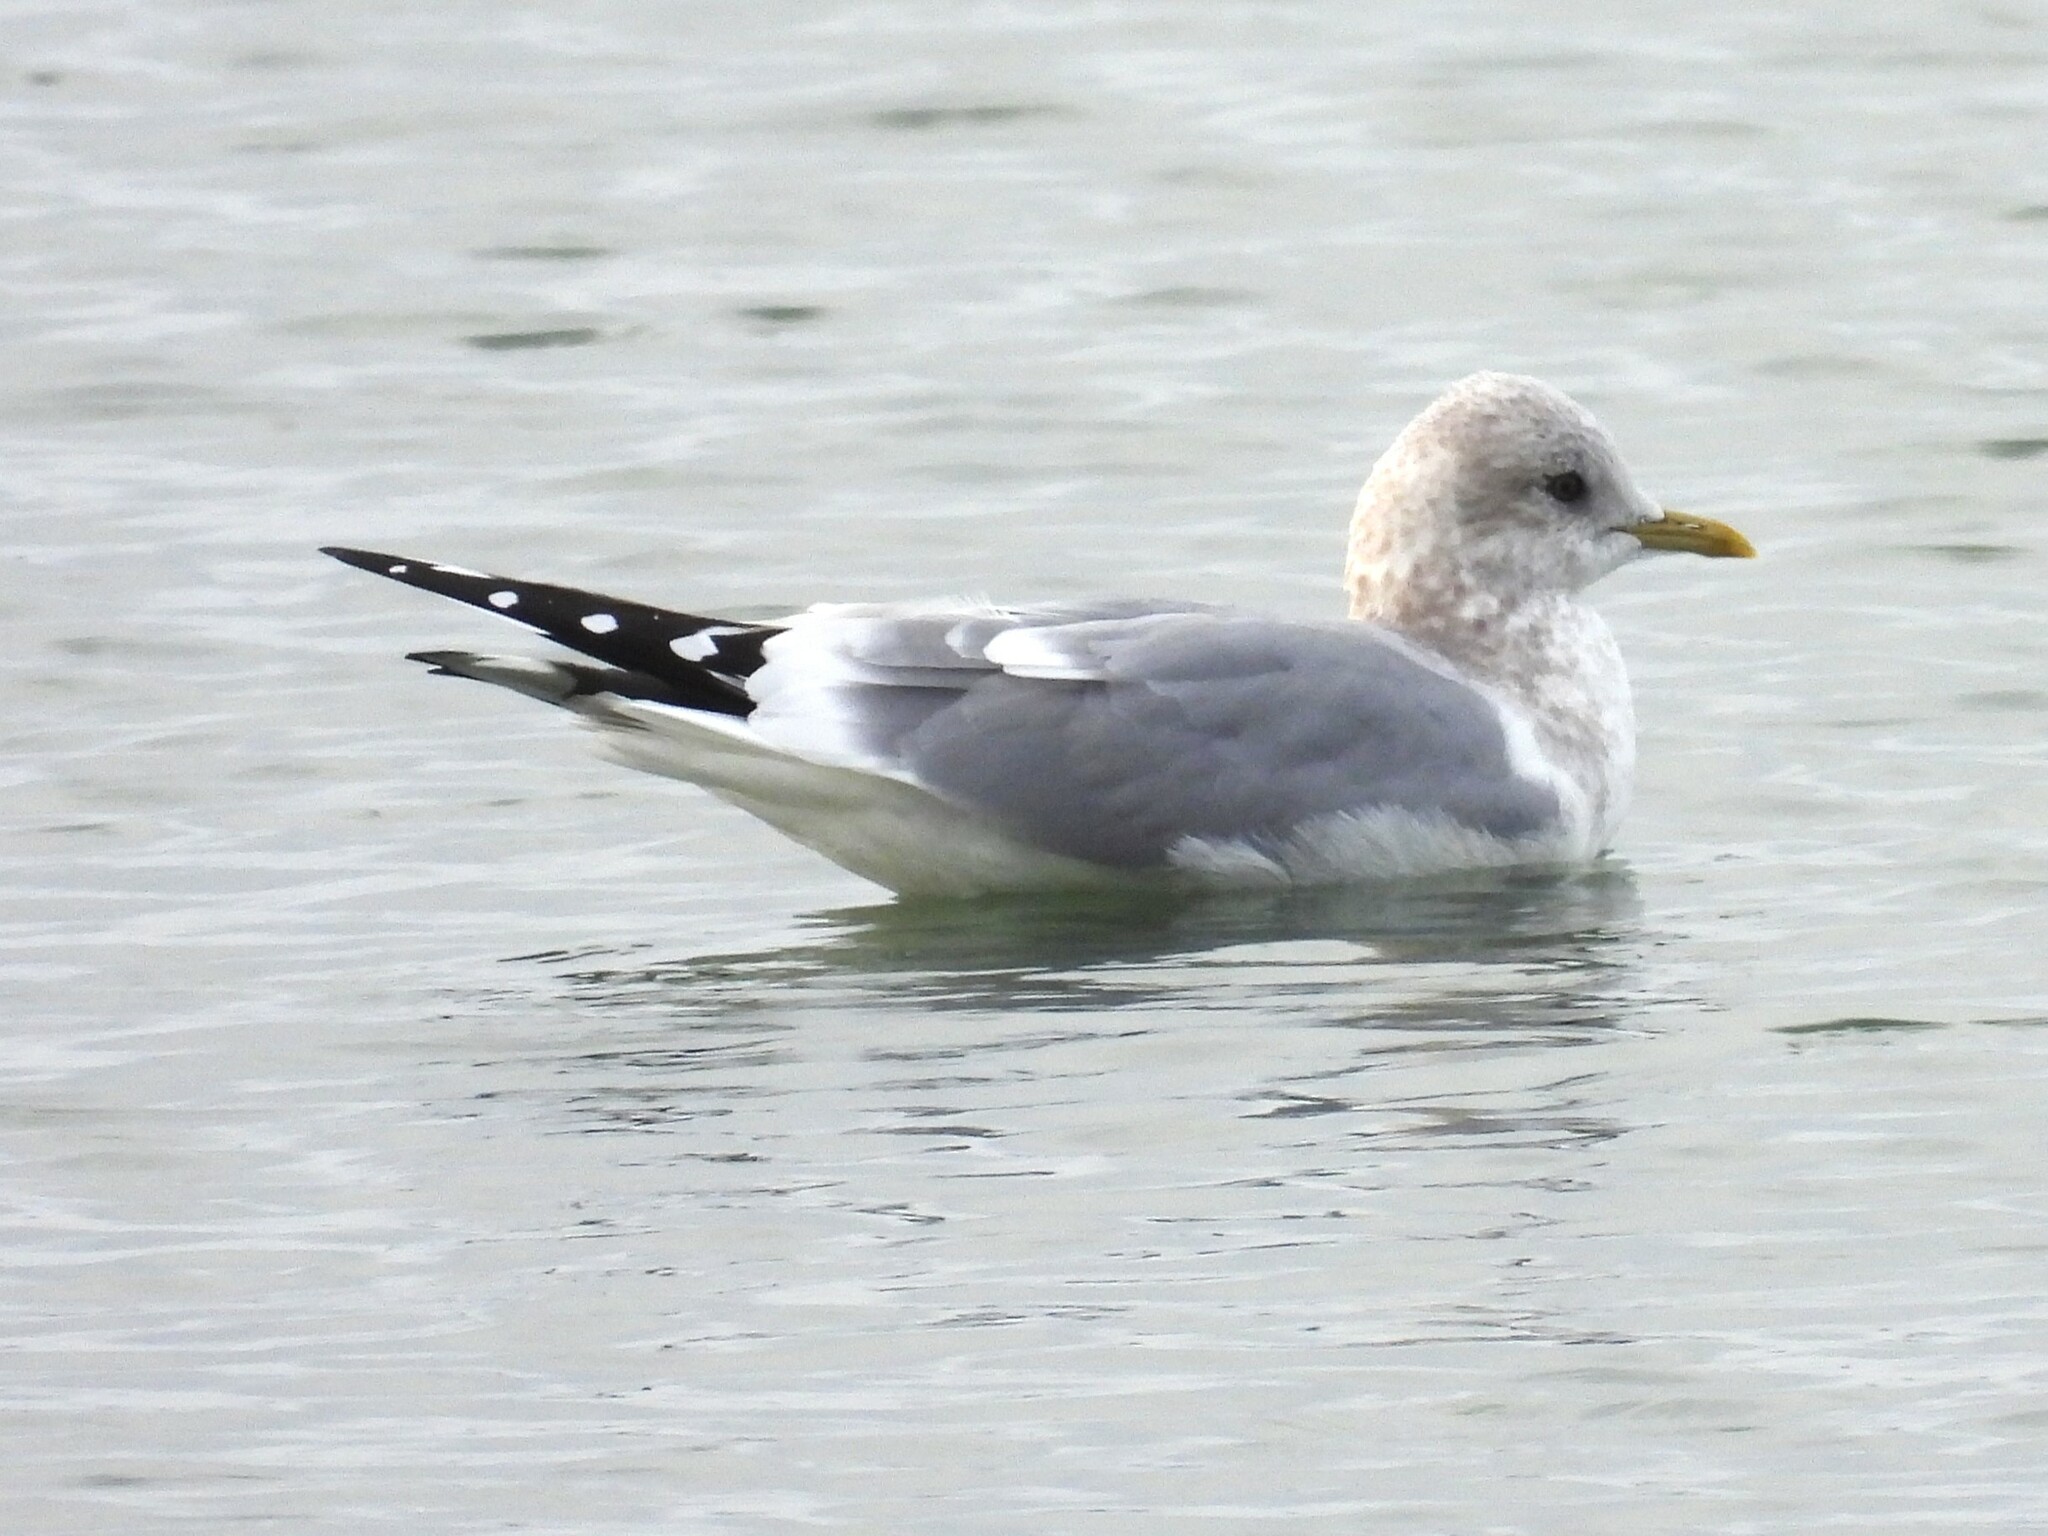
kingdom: Animalia
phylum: Chordata
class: Aves
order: Charadriiformes
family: Laridae
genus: Larus
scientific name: Larus brachyrhynchus
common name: Short-billed gull
